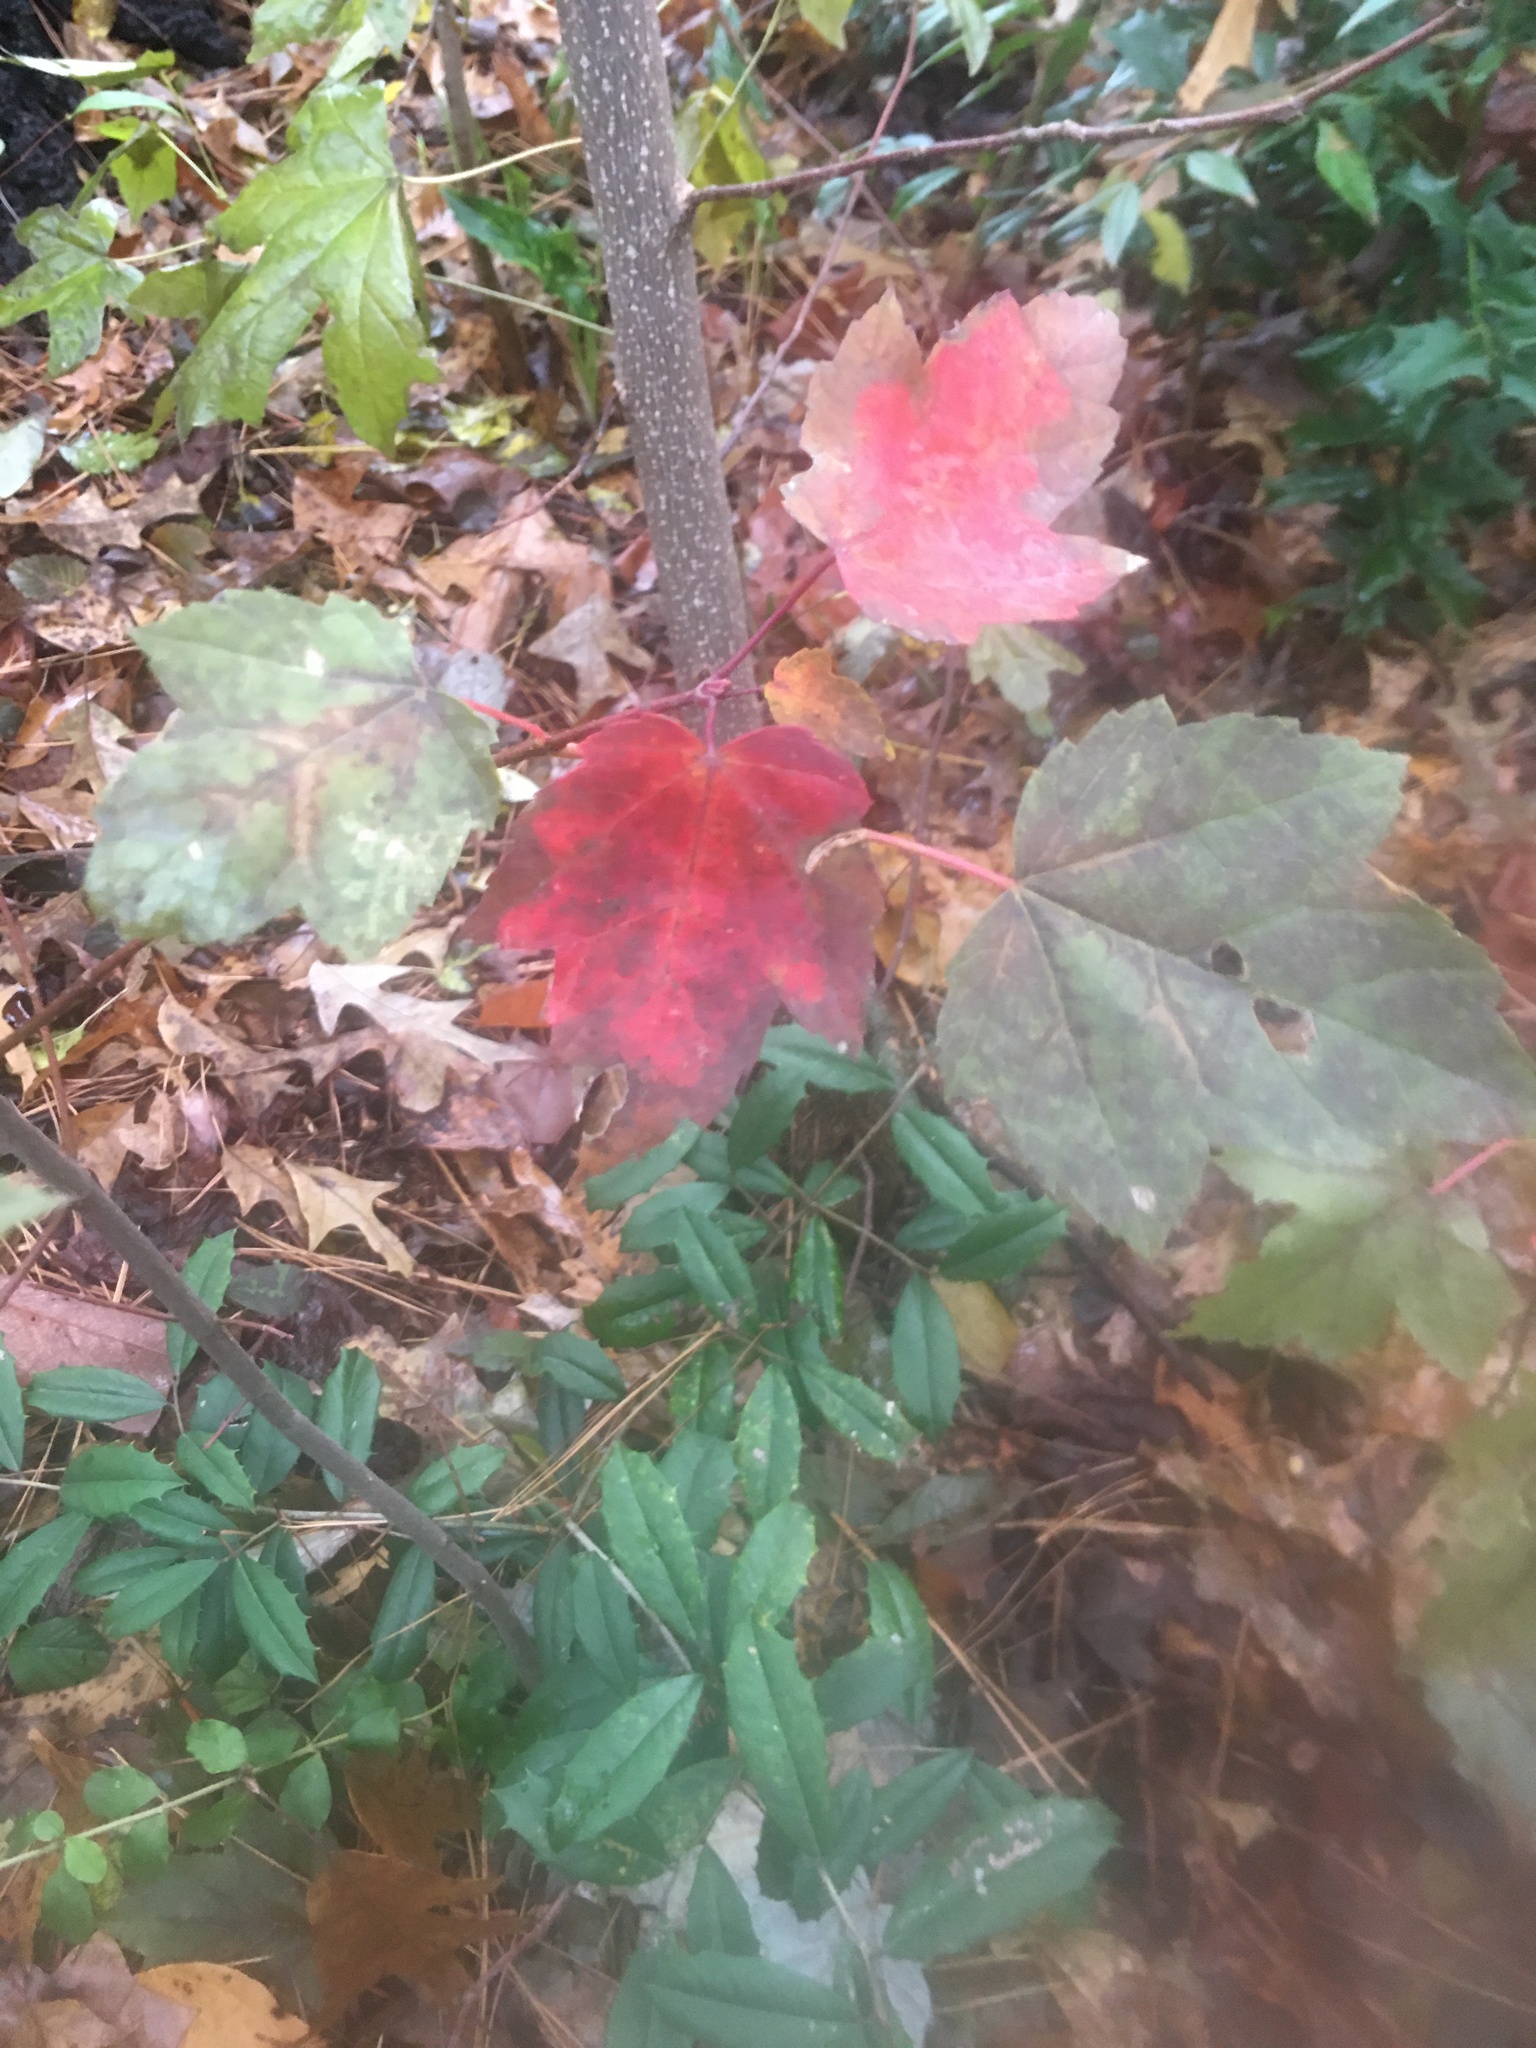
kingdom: Plantae
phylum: Tracheophyta
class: Magnoliopsida
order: Sapindales
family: Sapindaceae
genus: Acer
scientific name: Acer rubrum
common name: Red maple
